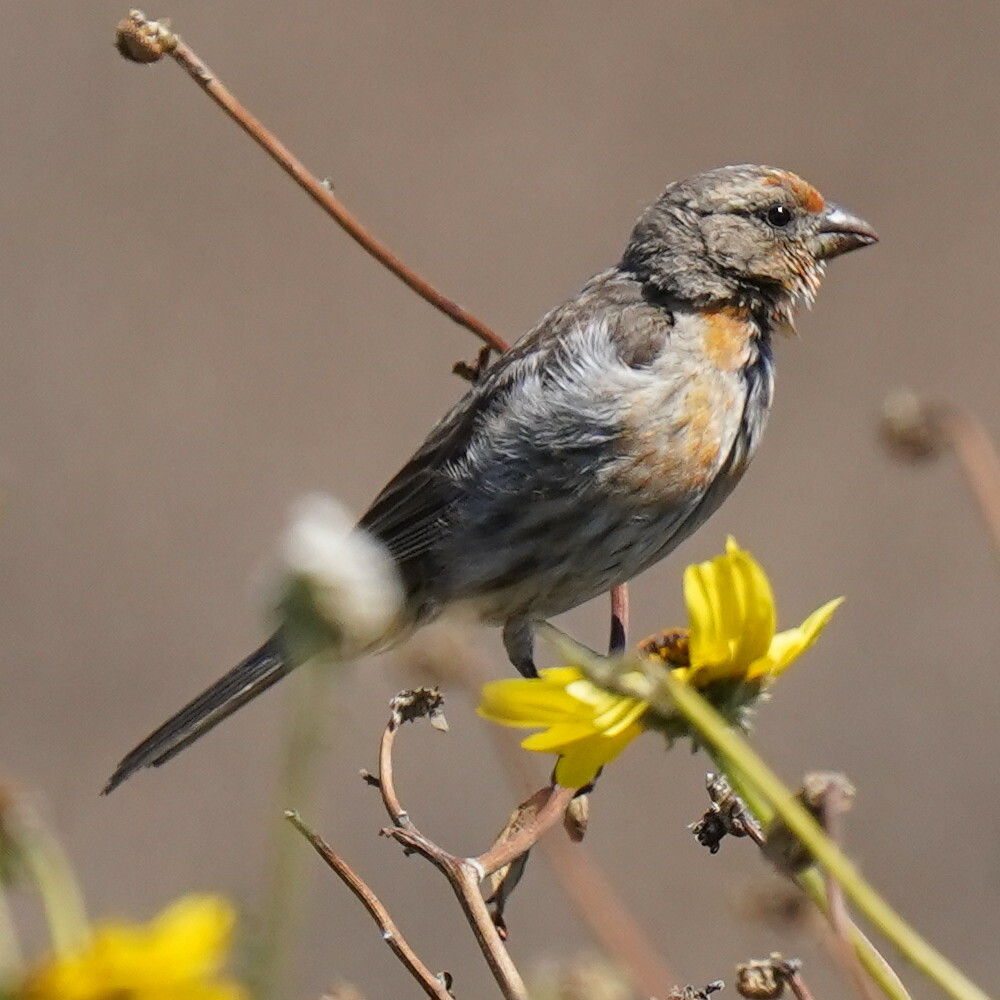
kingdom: Animalia
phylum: Chordata
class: Aves
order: Passeriformes
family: Fringillidae
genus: Haemorhous
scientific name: Haemorhous mexicanus
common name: House finch
